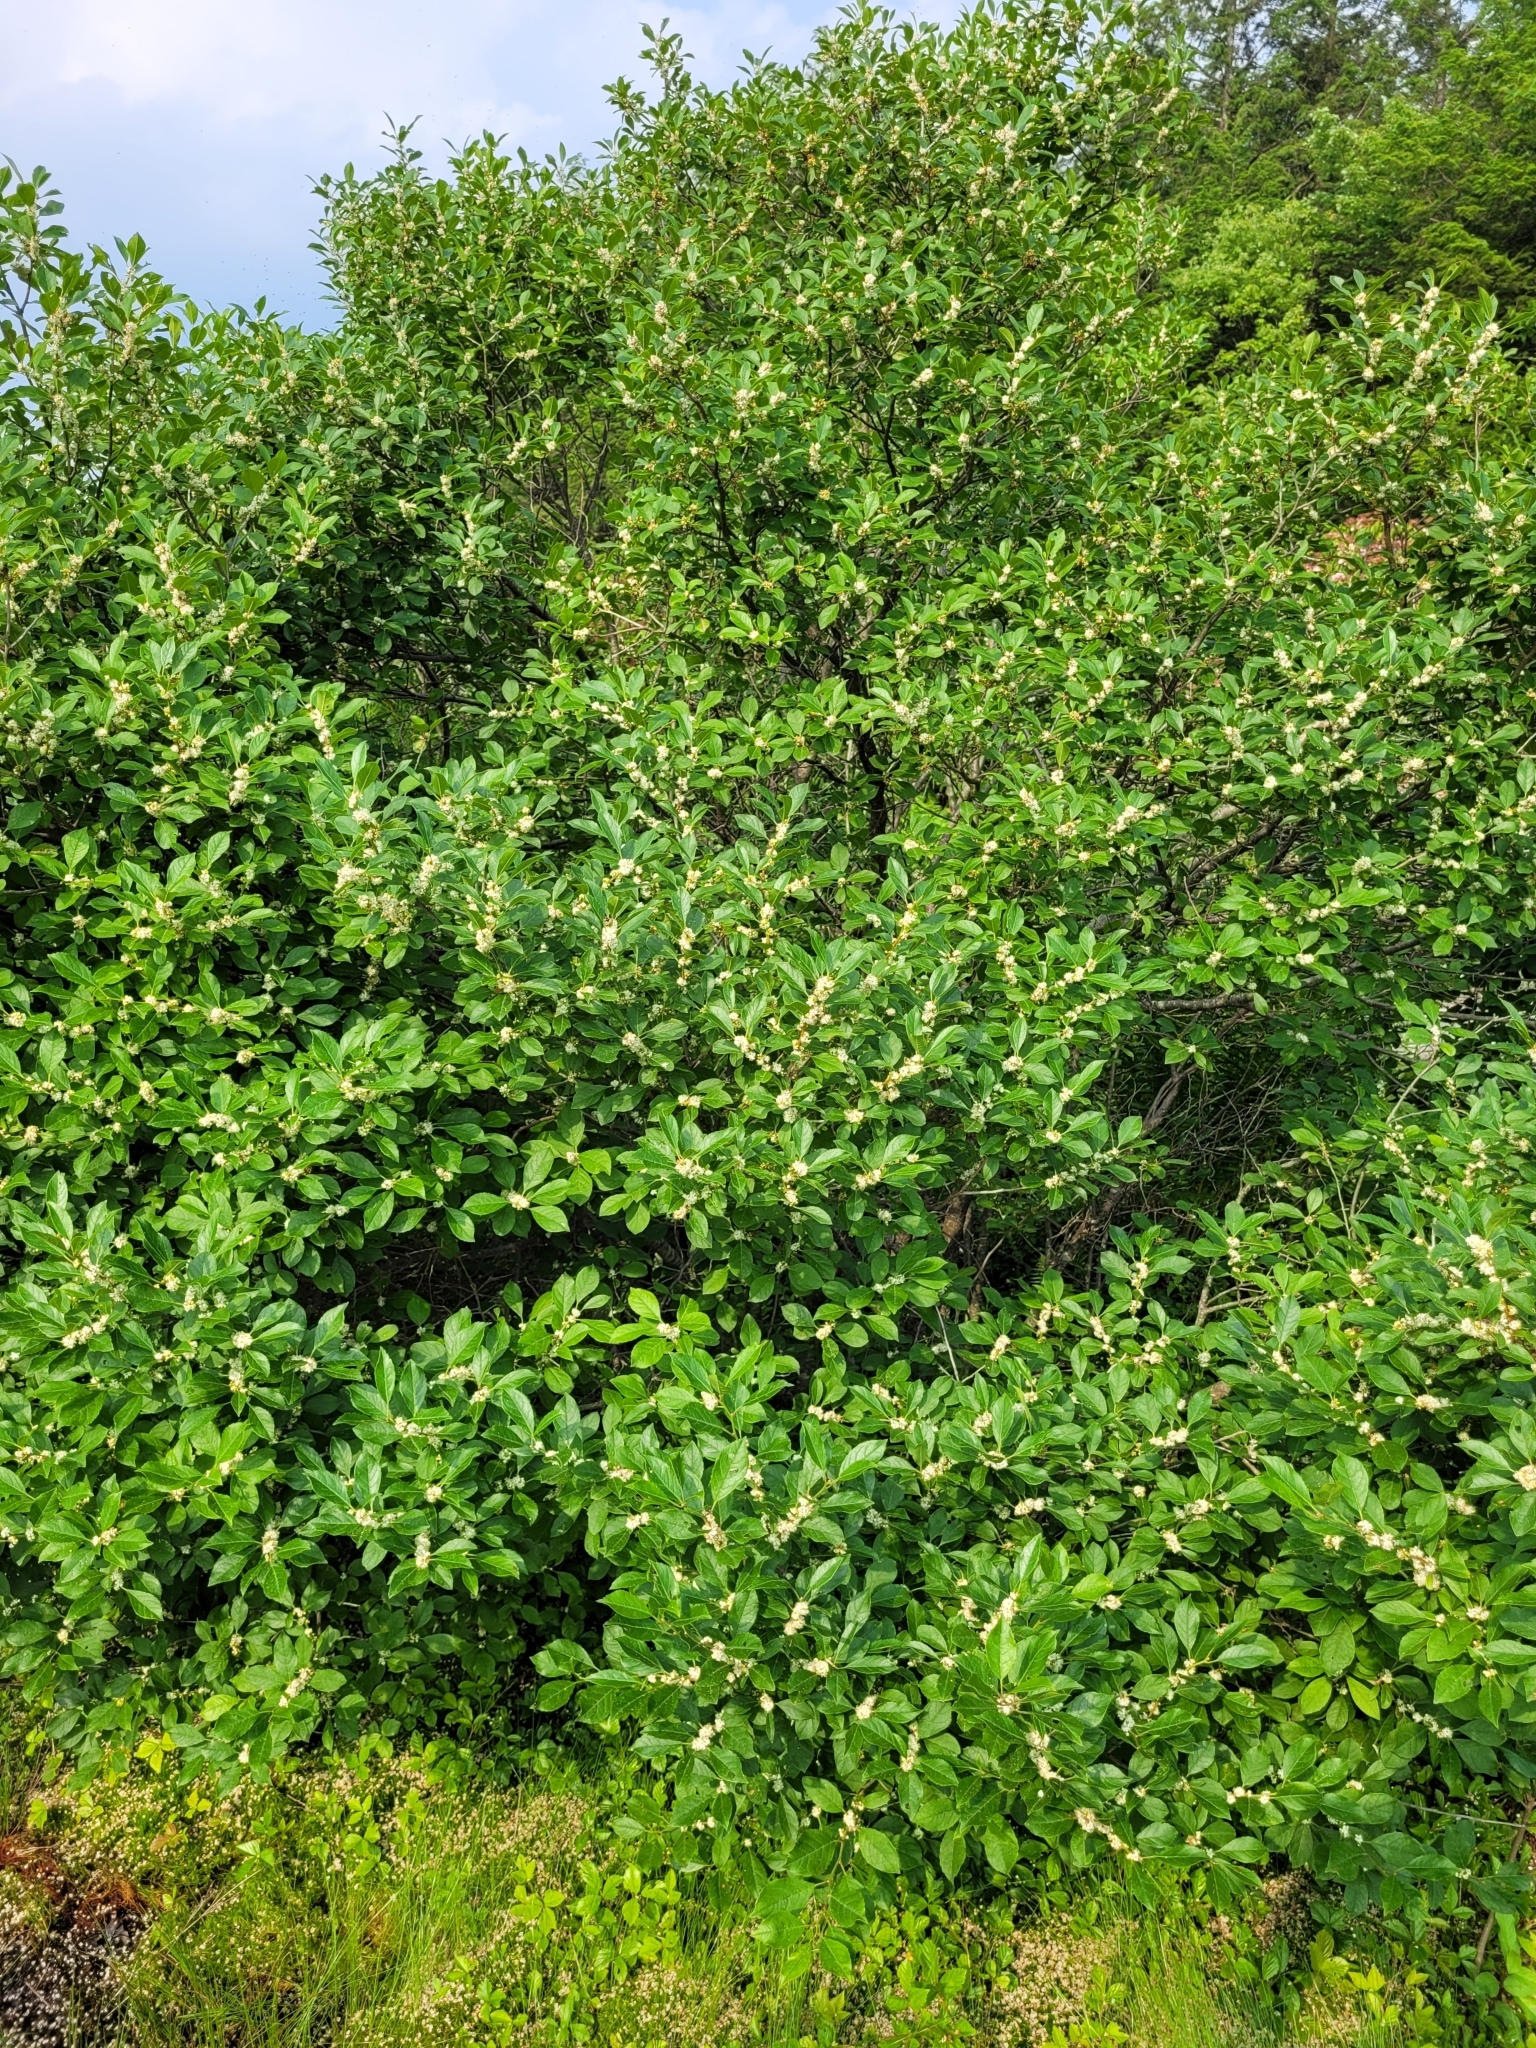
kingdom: Plantae
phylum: Tracheophyta
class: Magnoliopsida
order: Aquifoliales
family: Aquifoliaceae
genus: Ilex
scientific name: Ilex verticillata
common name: Virginia winterberry
